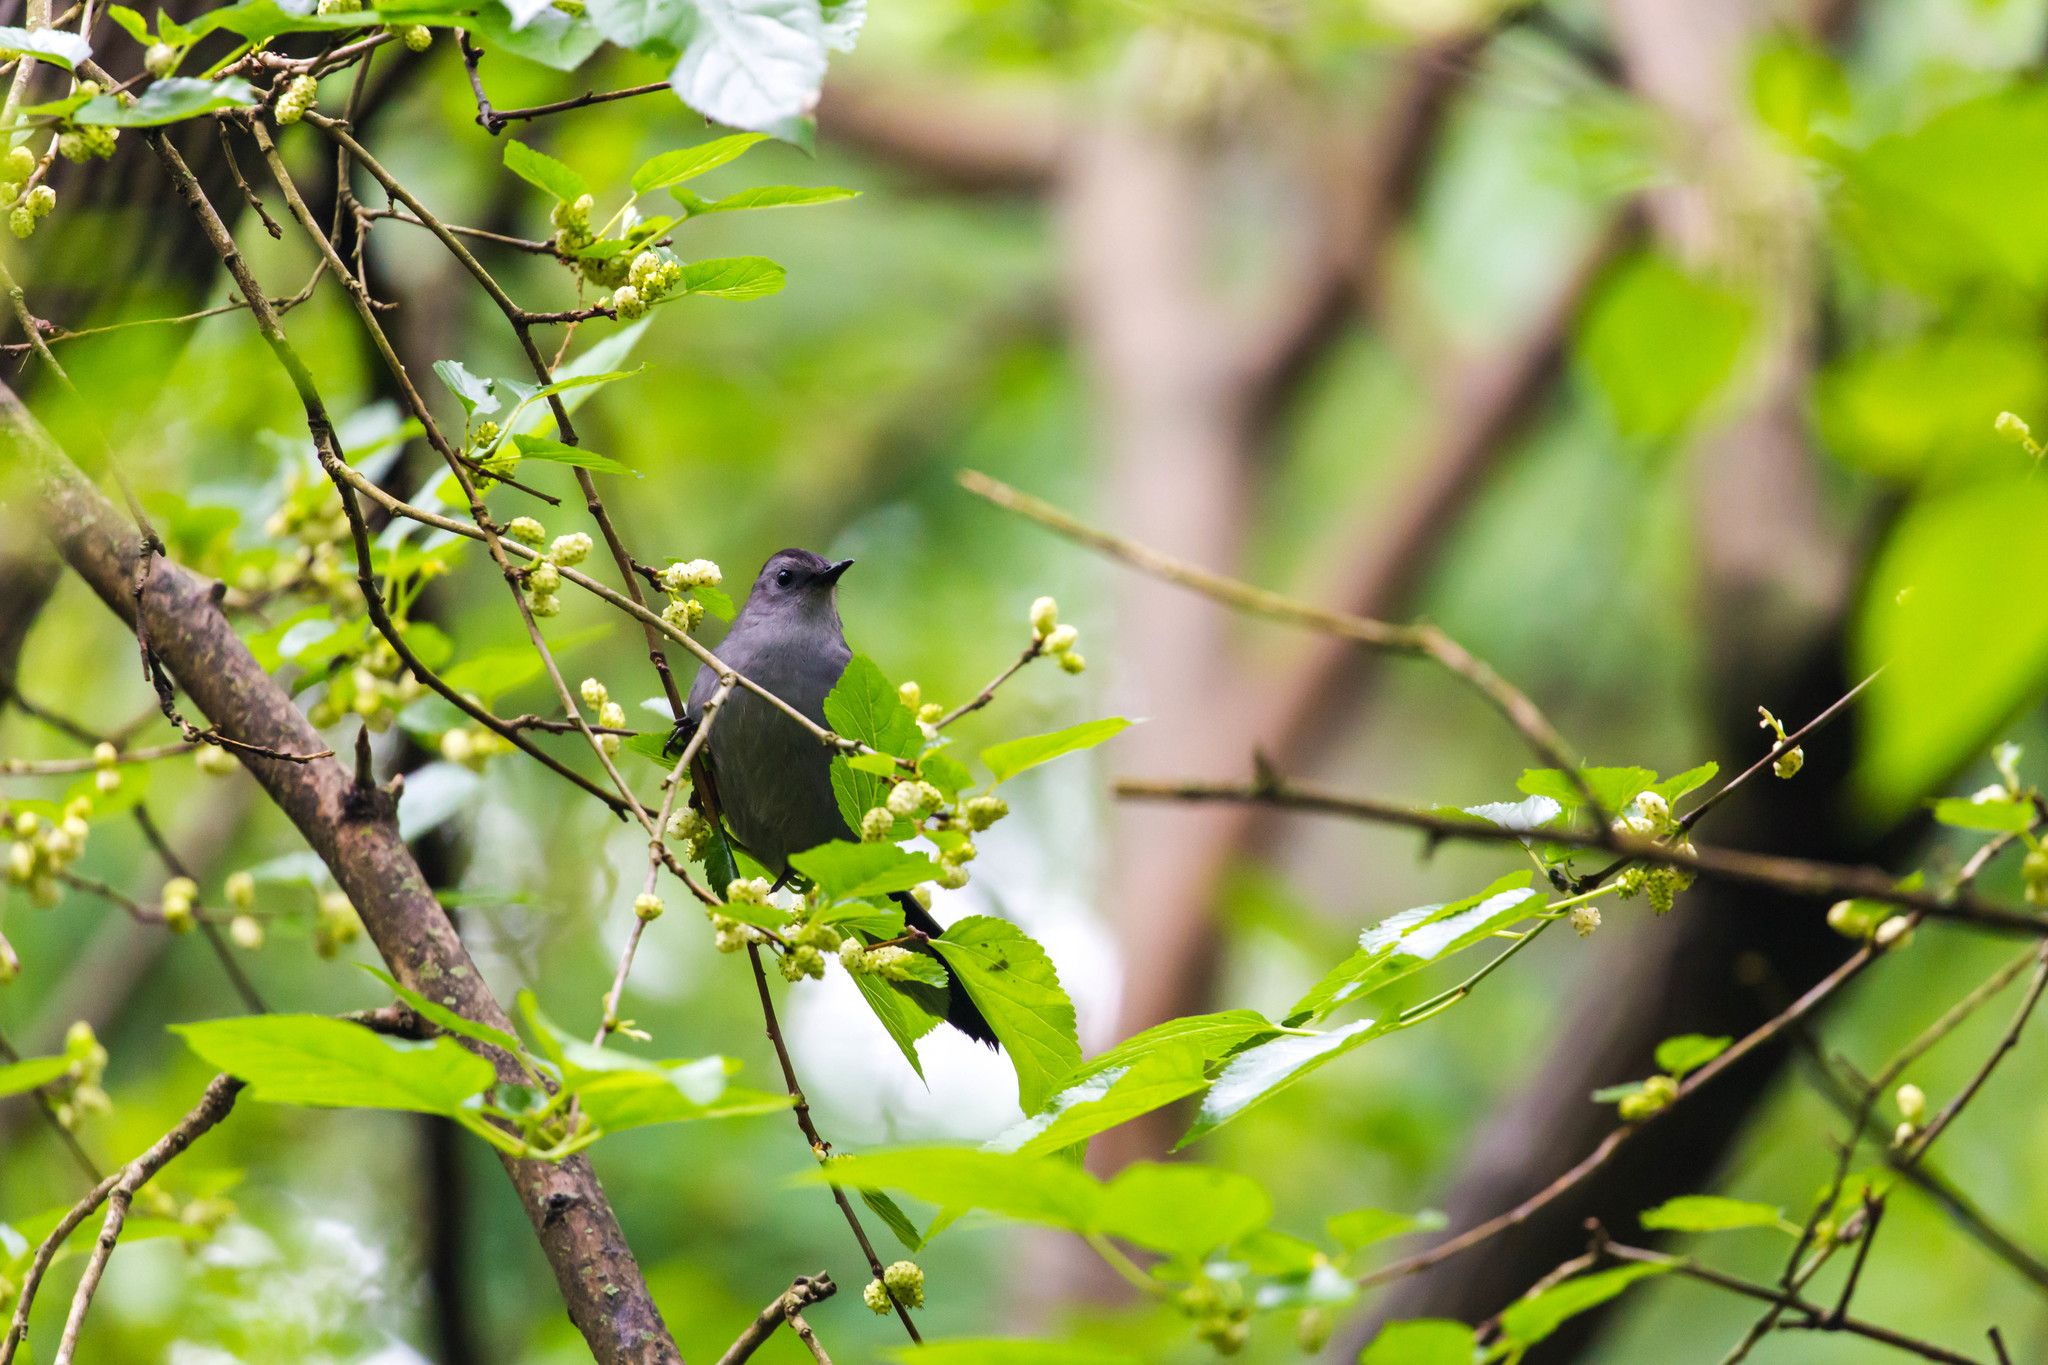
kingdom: Animalia
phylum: Chordata
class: Aves
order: Passeriformes
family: Mimidae
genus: Dumetella
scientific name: Dumetella carolinensis
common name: Gray catbird
